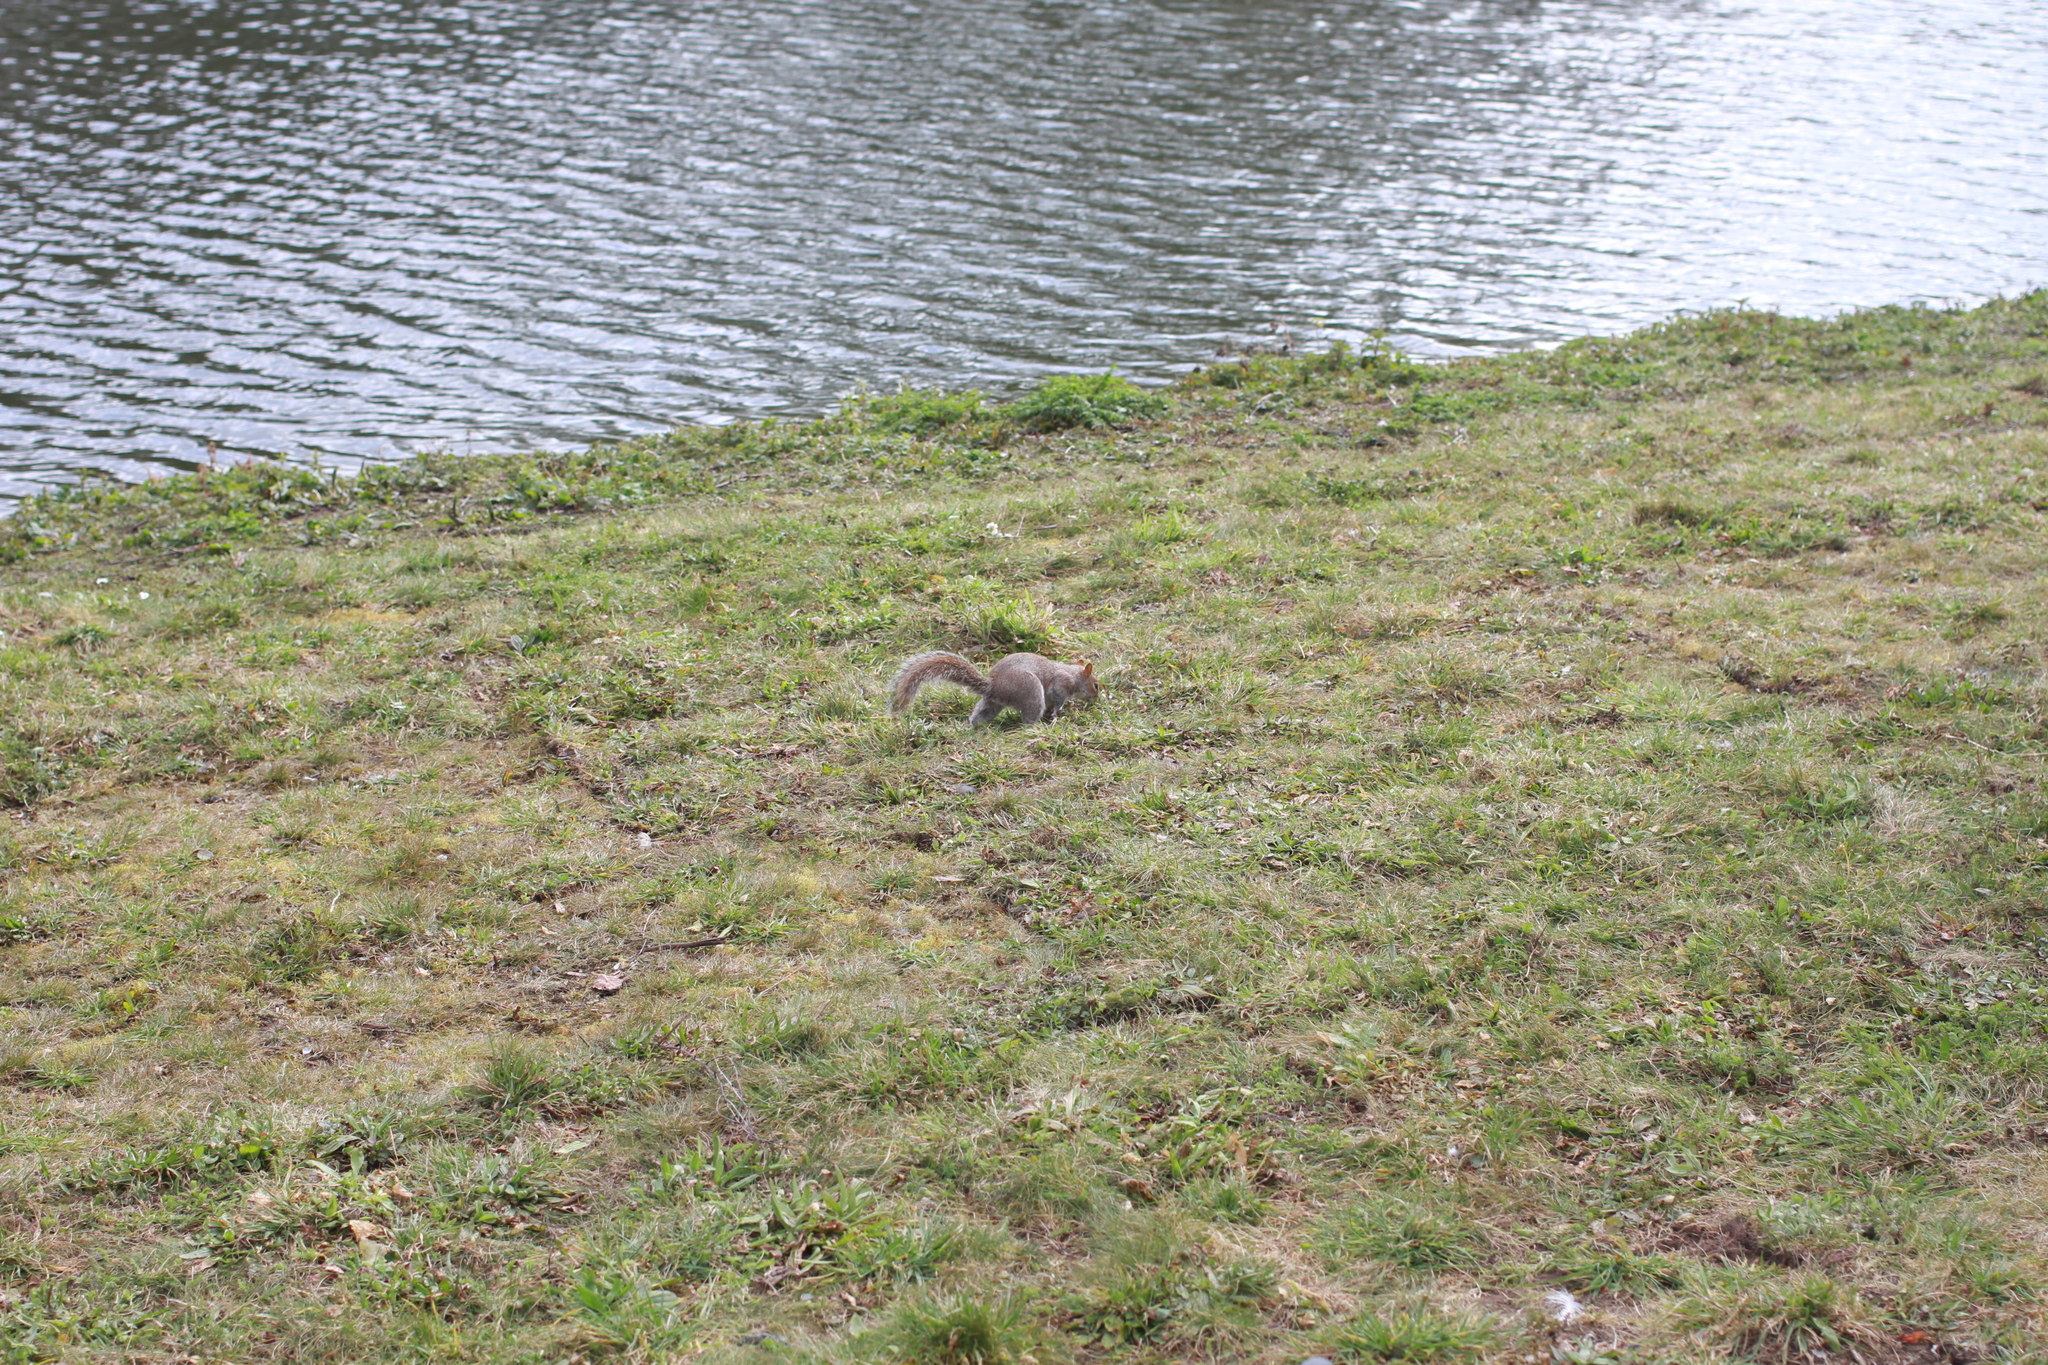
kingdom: Animalia
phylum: Chordata
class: Mammalia
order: Rodentia
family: Sciuridae
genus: Sciurus
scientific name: Sciurus carolinensis
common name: Eastern gray squirrel
